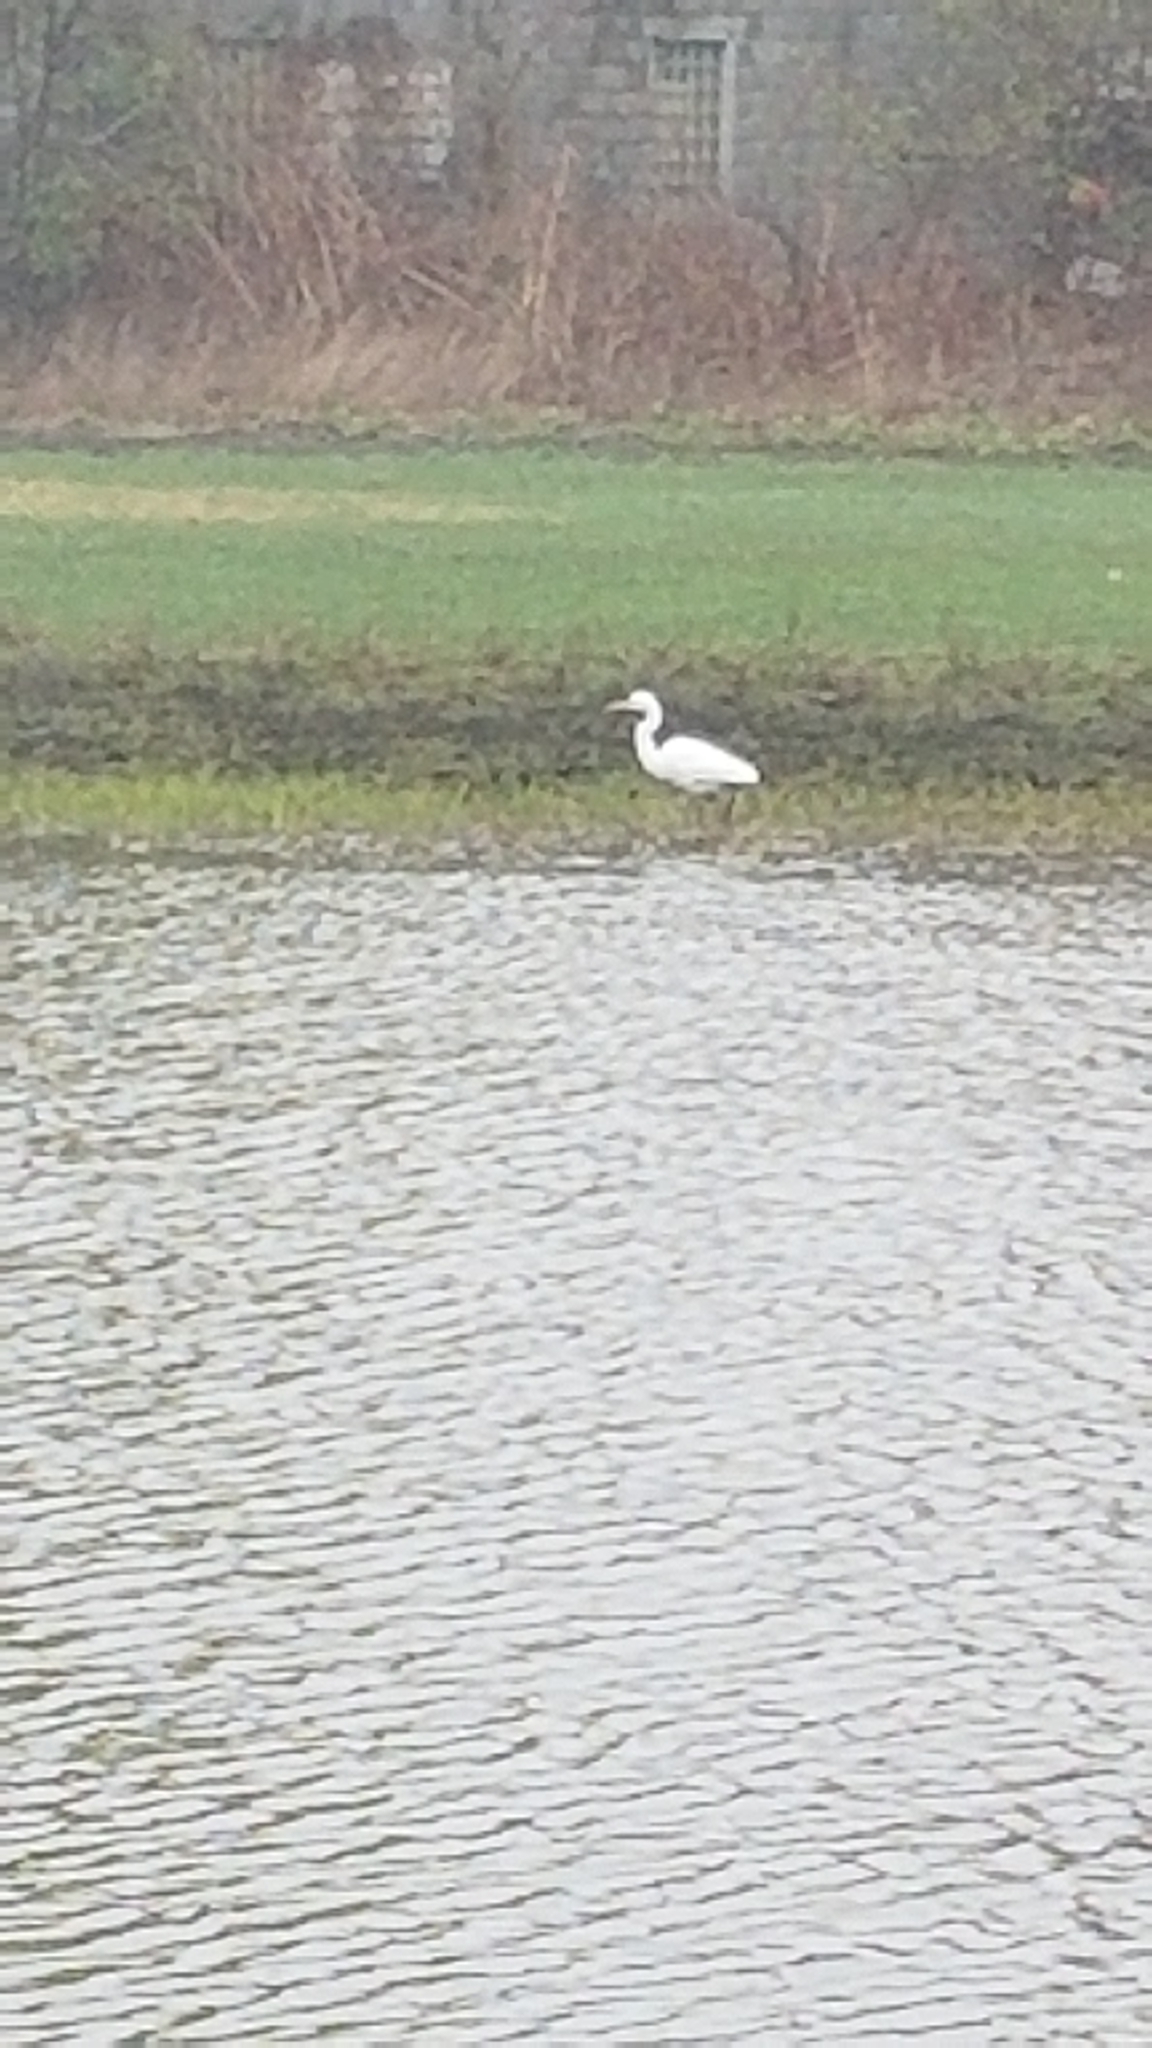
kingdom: Animalia
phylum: Chordata
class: Aves
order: Pelecaniformes
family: Ardeidae
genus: Ardea
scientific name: Ardea alba
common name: Great egret
